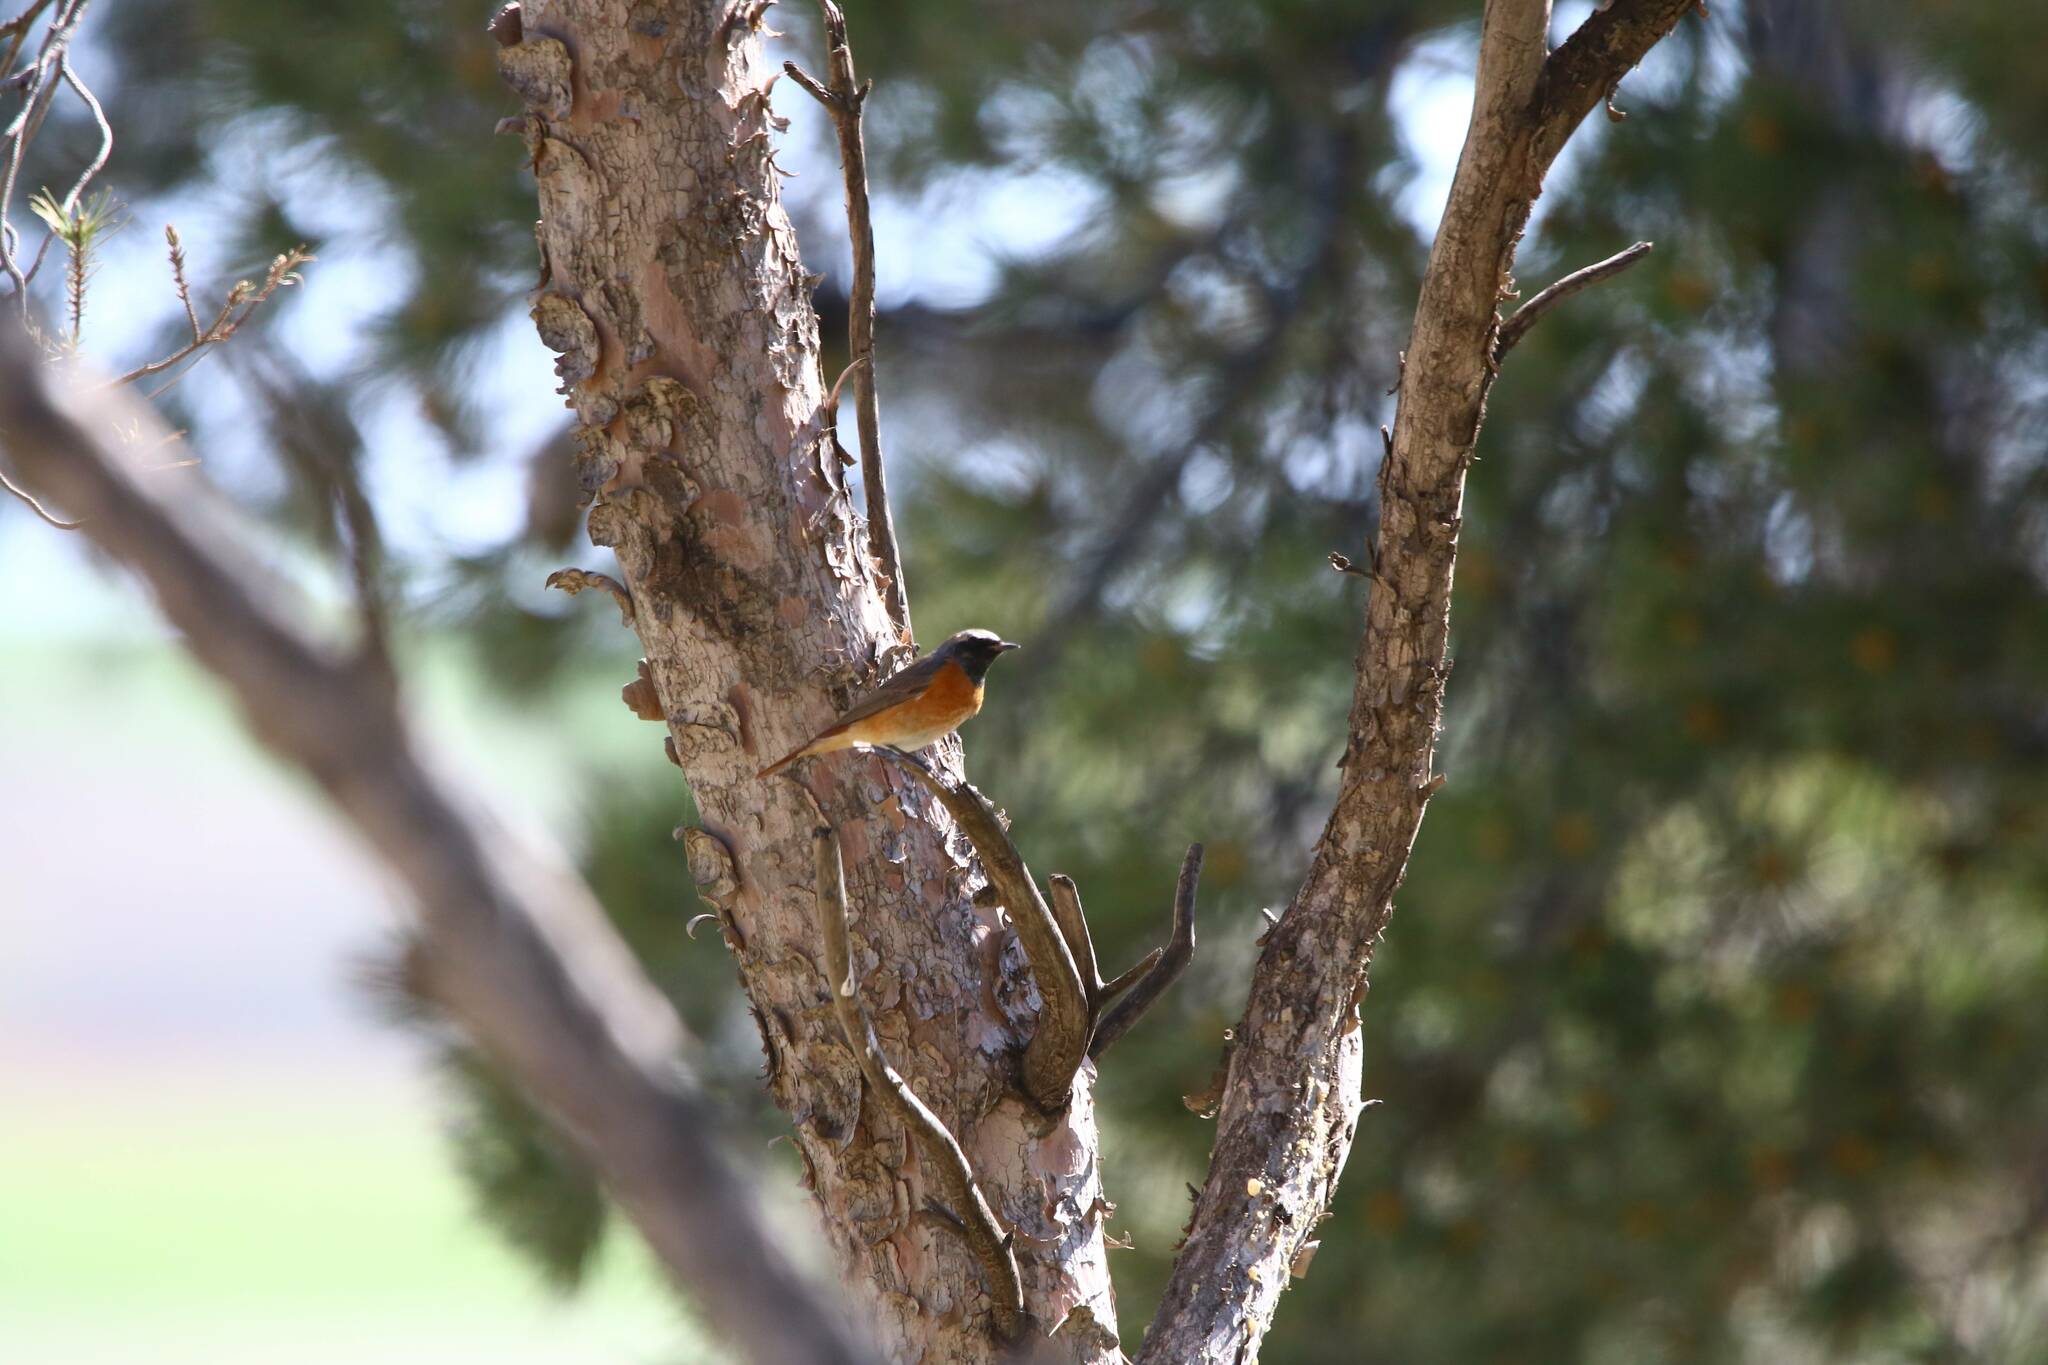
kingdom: Animalia
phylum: Chordata
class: Aves
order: Passeriformes
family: Muscicapidae
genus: Phoenicurus
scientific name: Phoenicurus phoenicurus
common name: Common redstart
